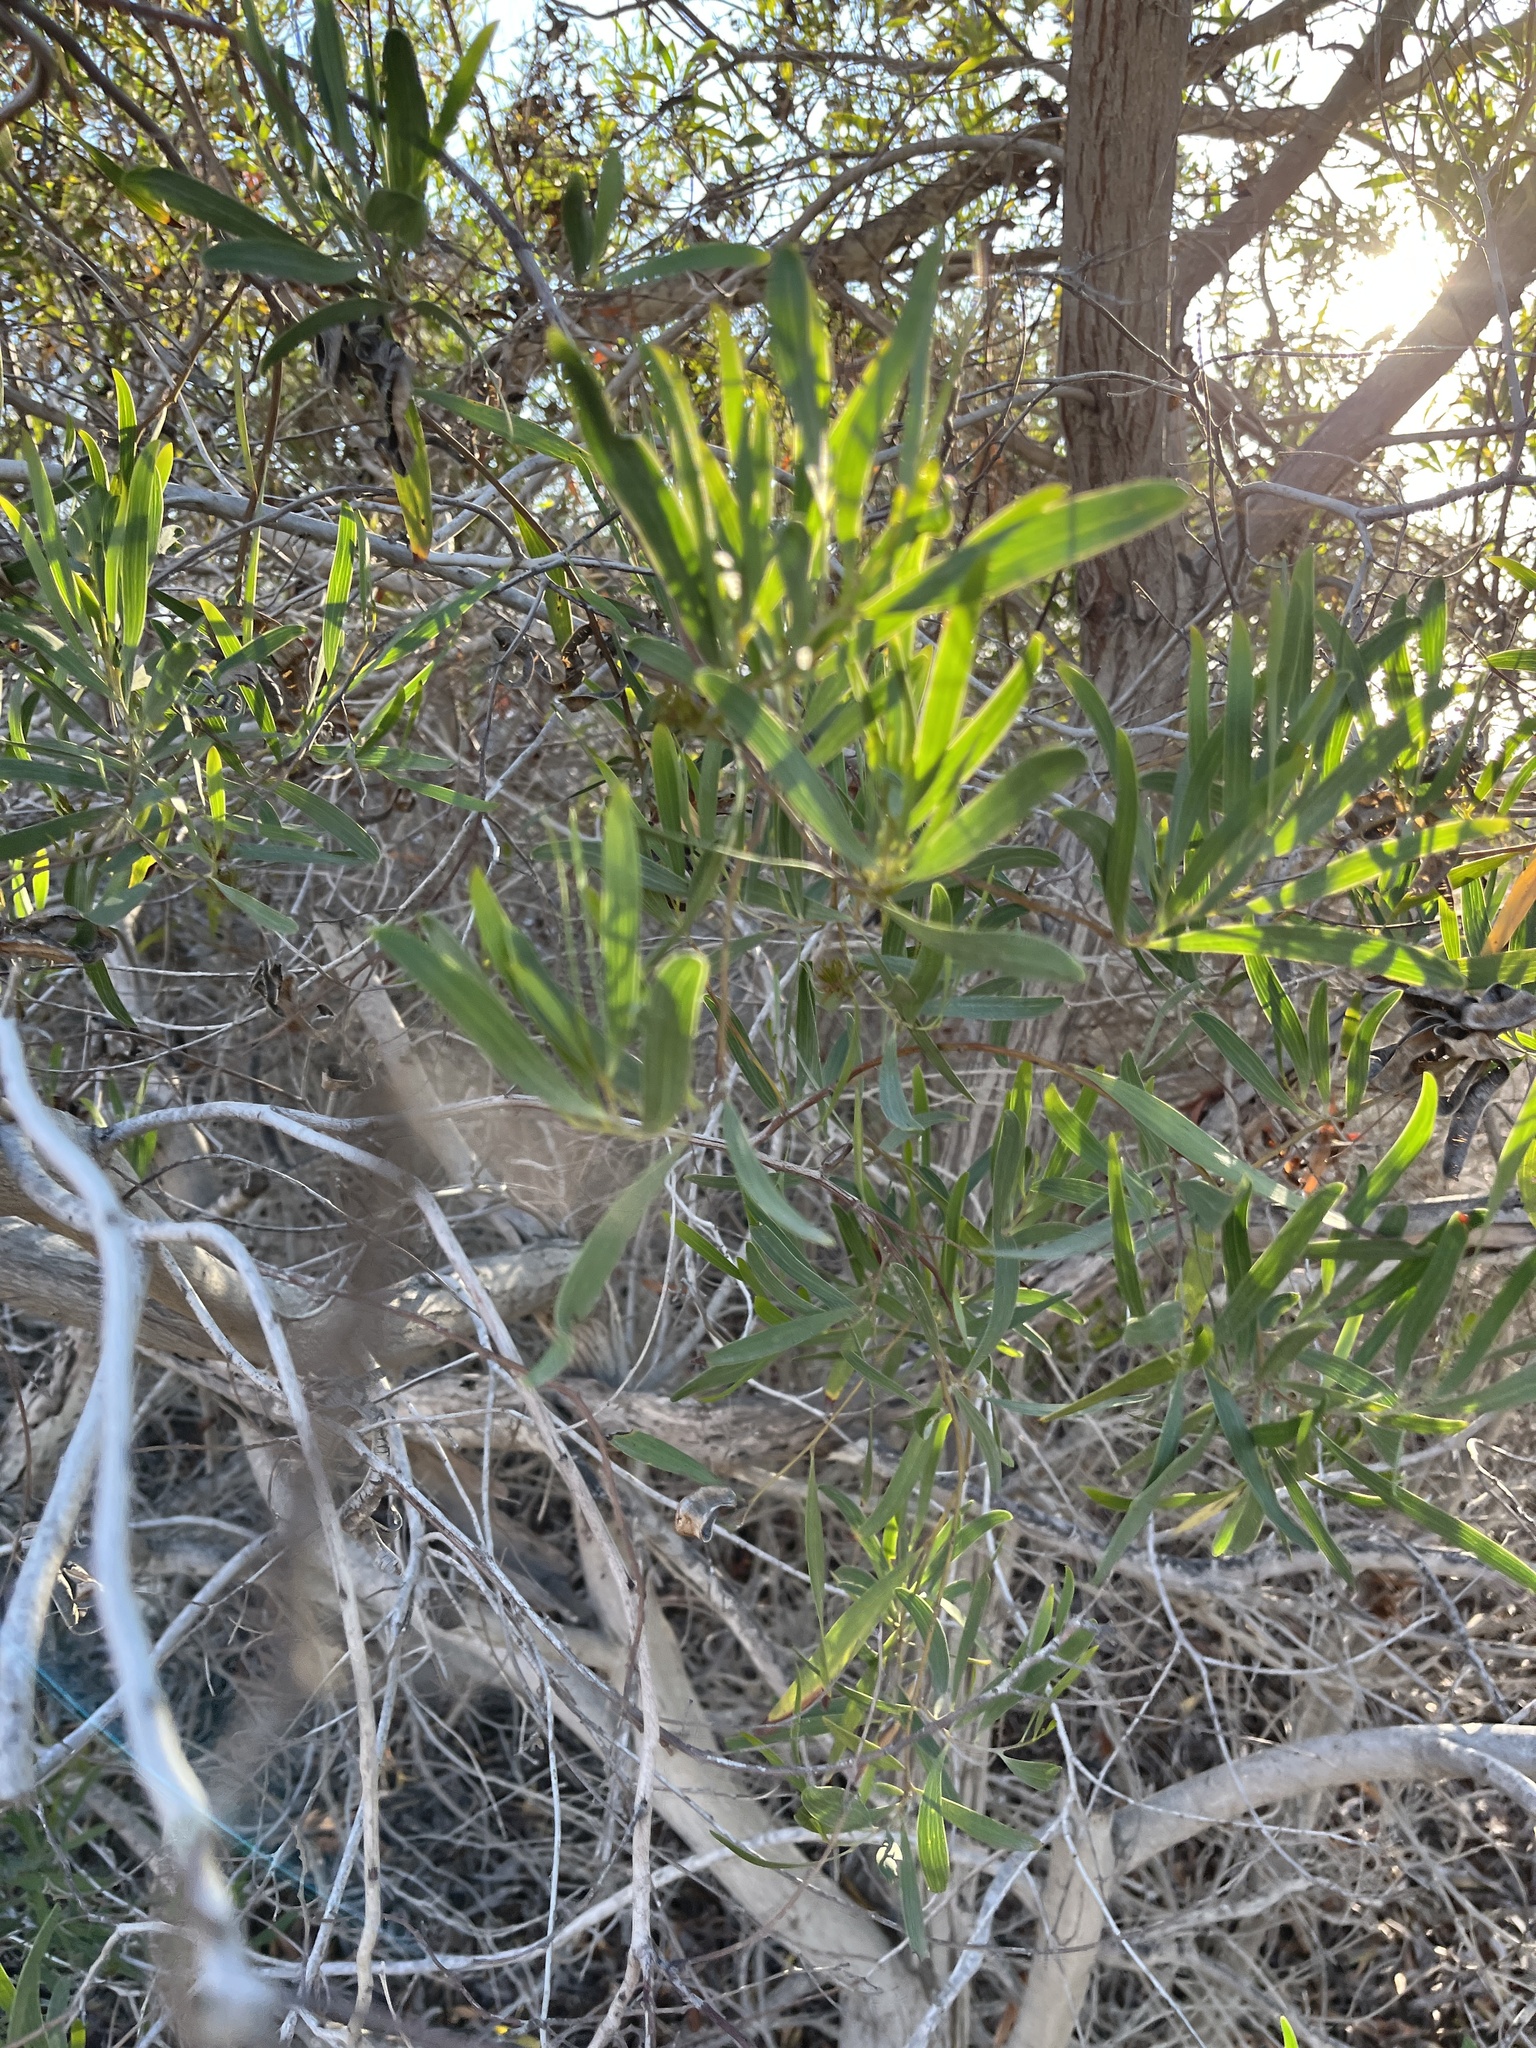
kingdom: Plantae
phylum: Tracheophyta
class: Magnoliopsida
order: Fabales
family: Fabaceae
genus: Acacia
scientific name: Acacia cyclops
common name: Coastal wattle
